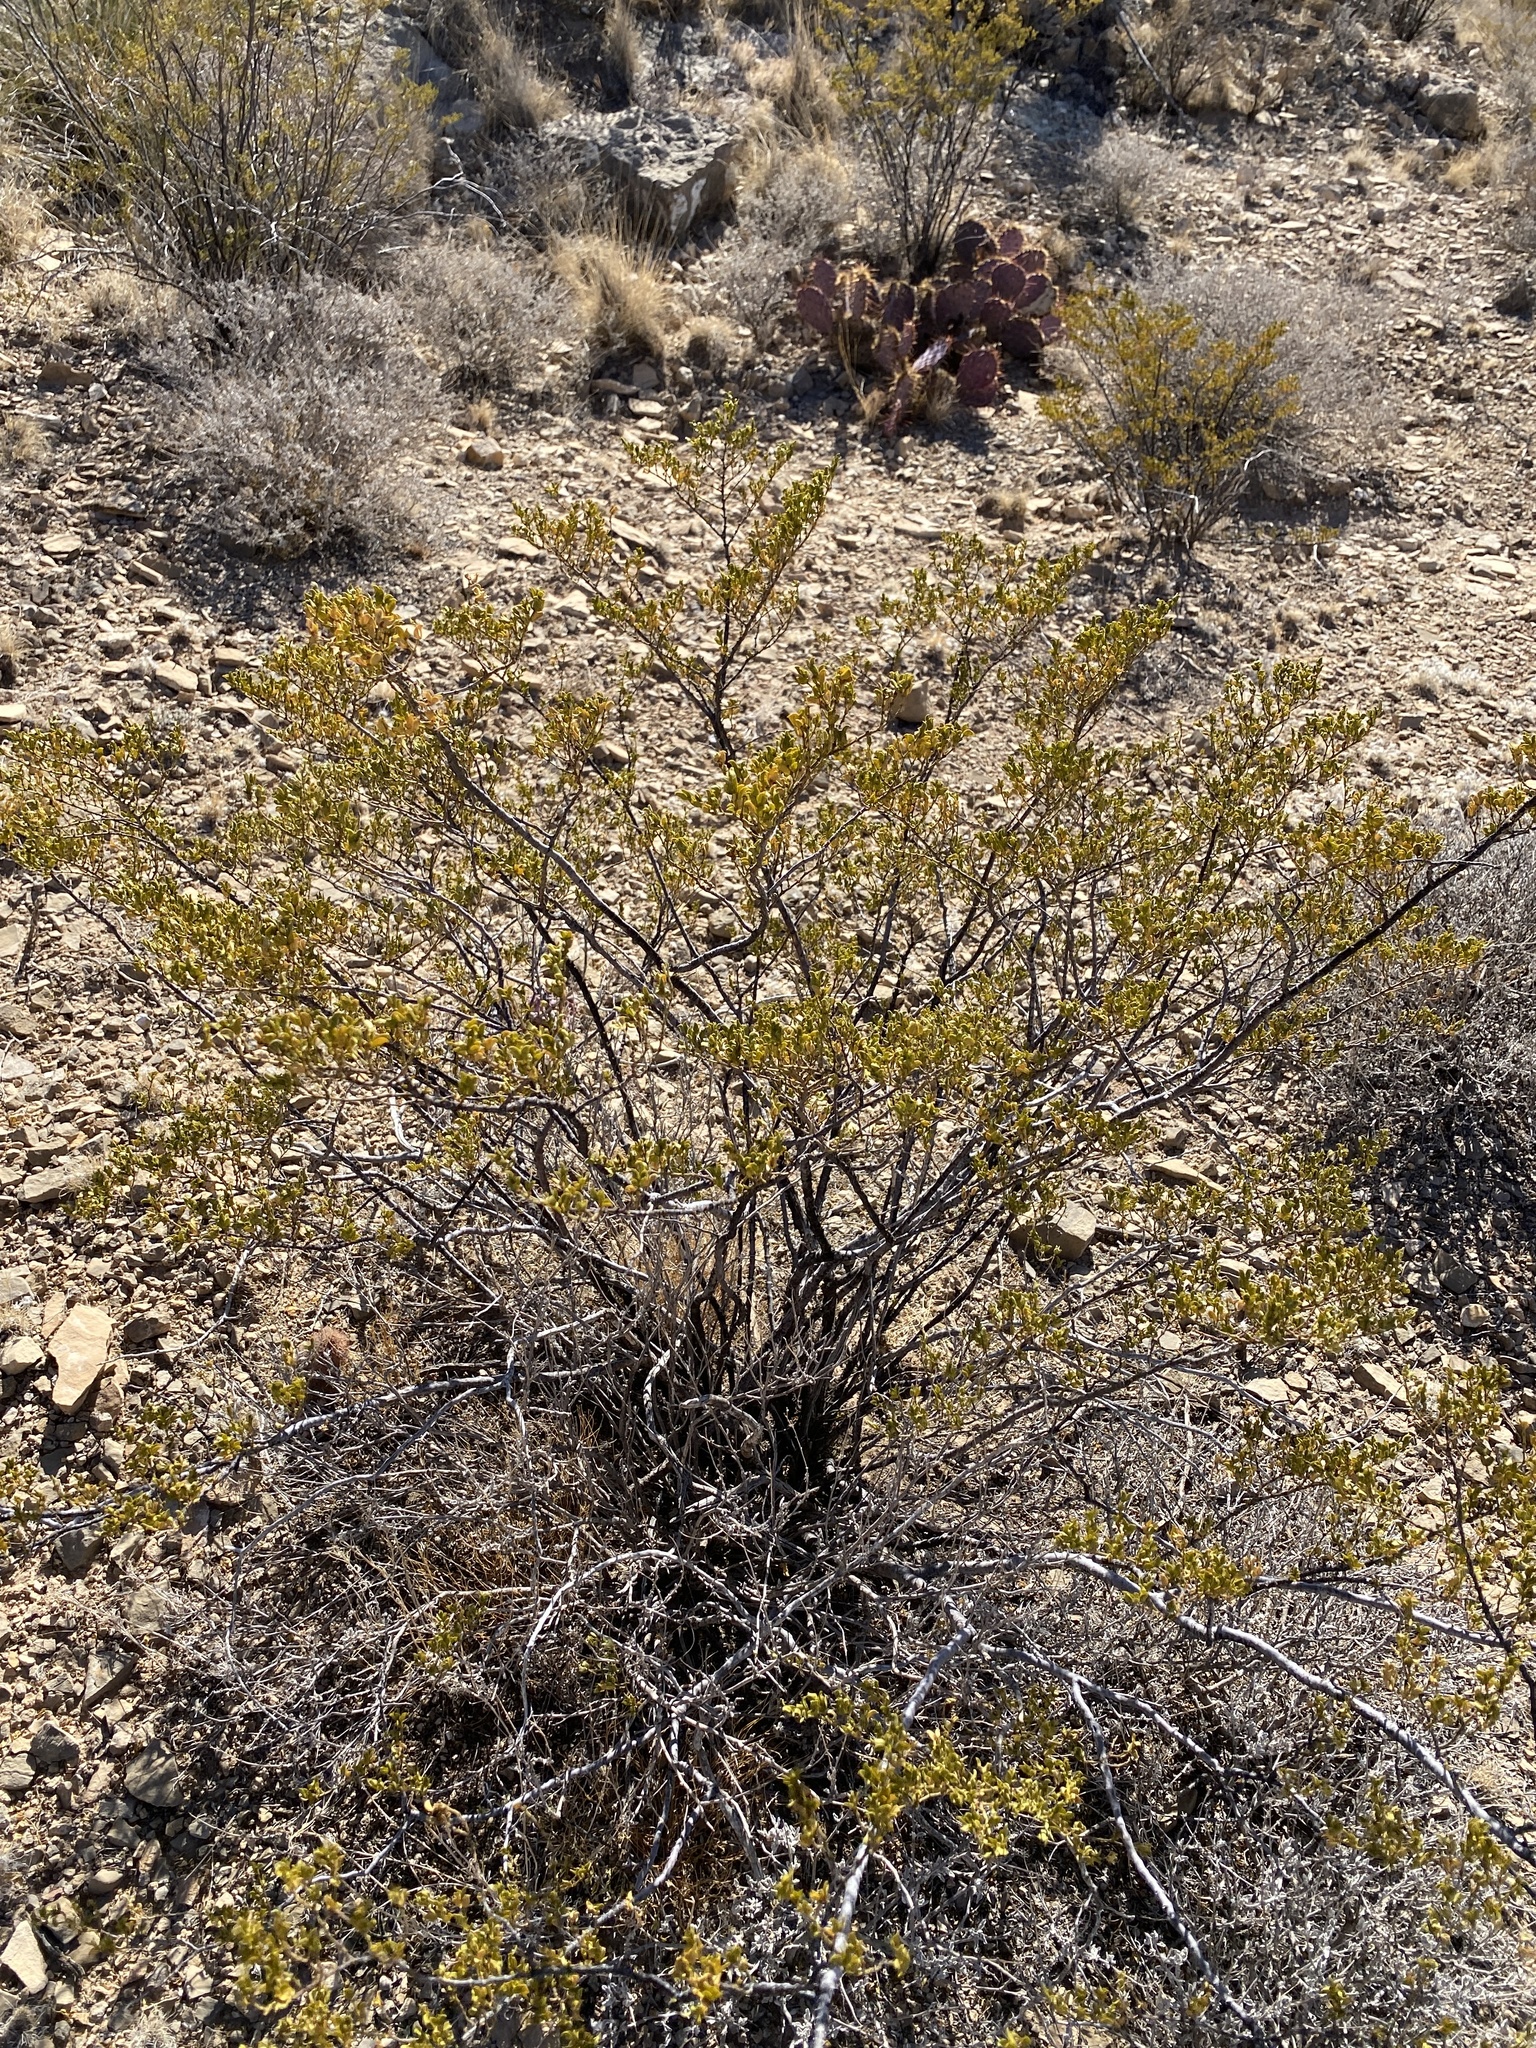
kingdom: Plantae
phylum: Tracheophyta
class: Magnoliopsida
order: Zygophyllales
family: Zygophyllaceae
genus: Larrea
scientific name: Larrea tridentata
